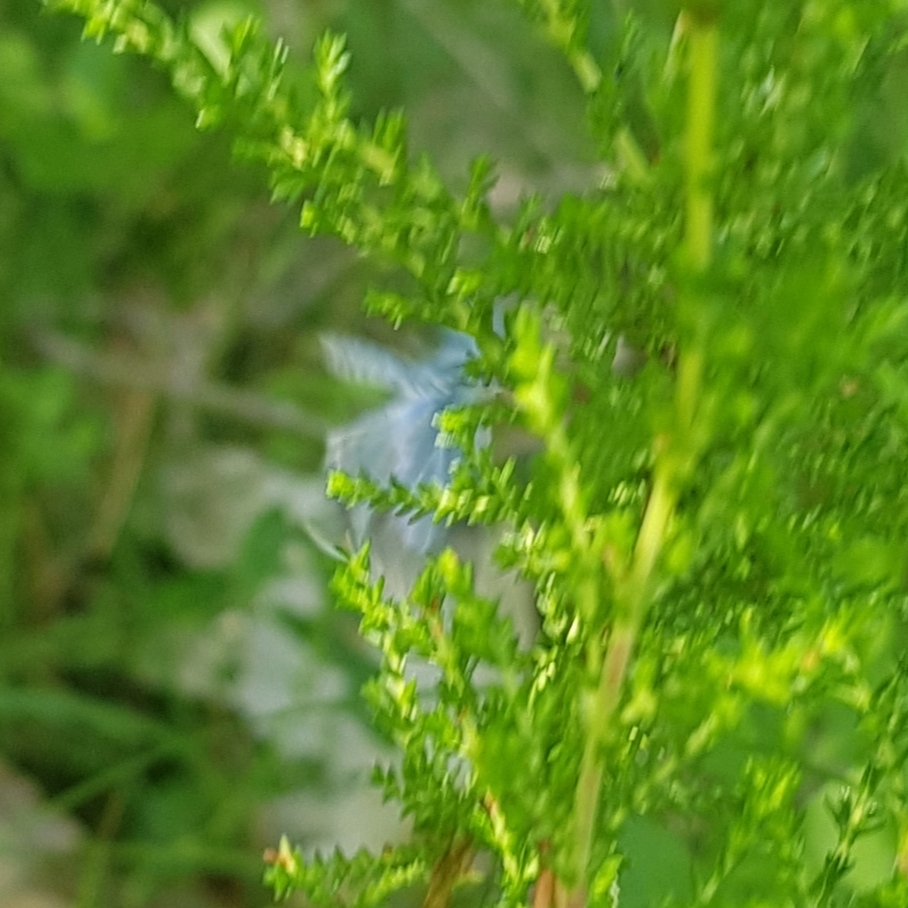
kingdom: Animalia
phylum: Arthropoda
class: Insecta
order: Lepidoptera
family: Lycaenidae
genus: Celastrina
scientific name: Celastrina argiolus
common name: Holly blue
